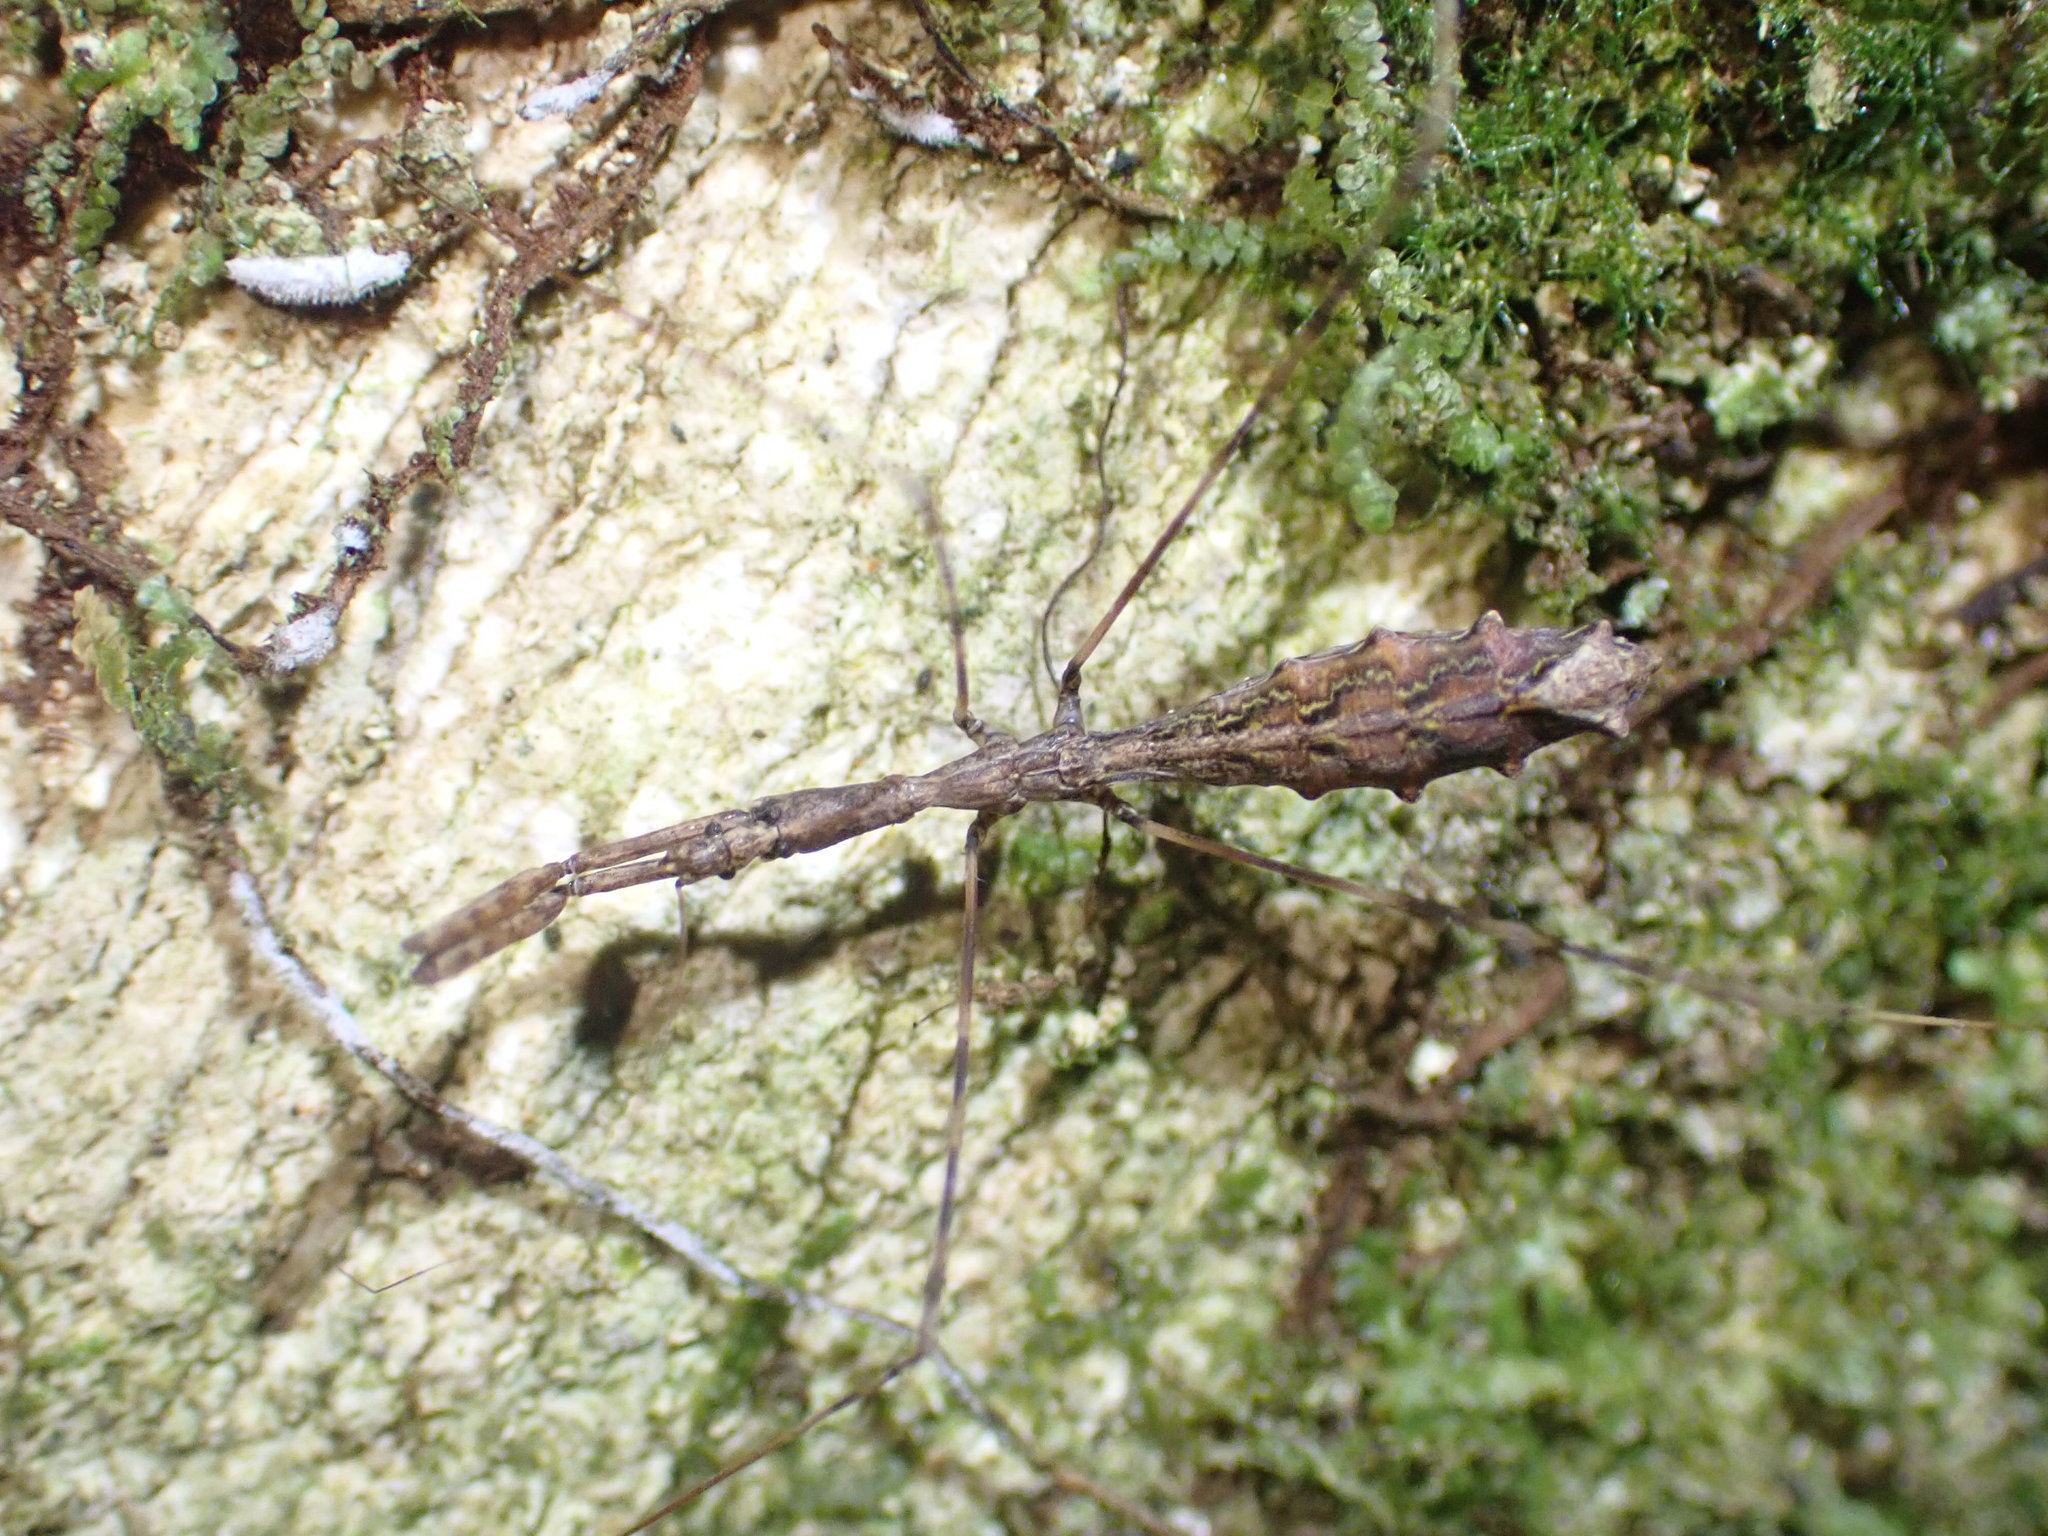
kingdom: Animalia
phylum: Arthropoda
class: Insecta
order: Hemiptera
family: Reduviidae
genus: Ploiaria
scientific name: Ploiaria antipodum
